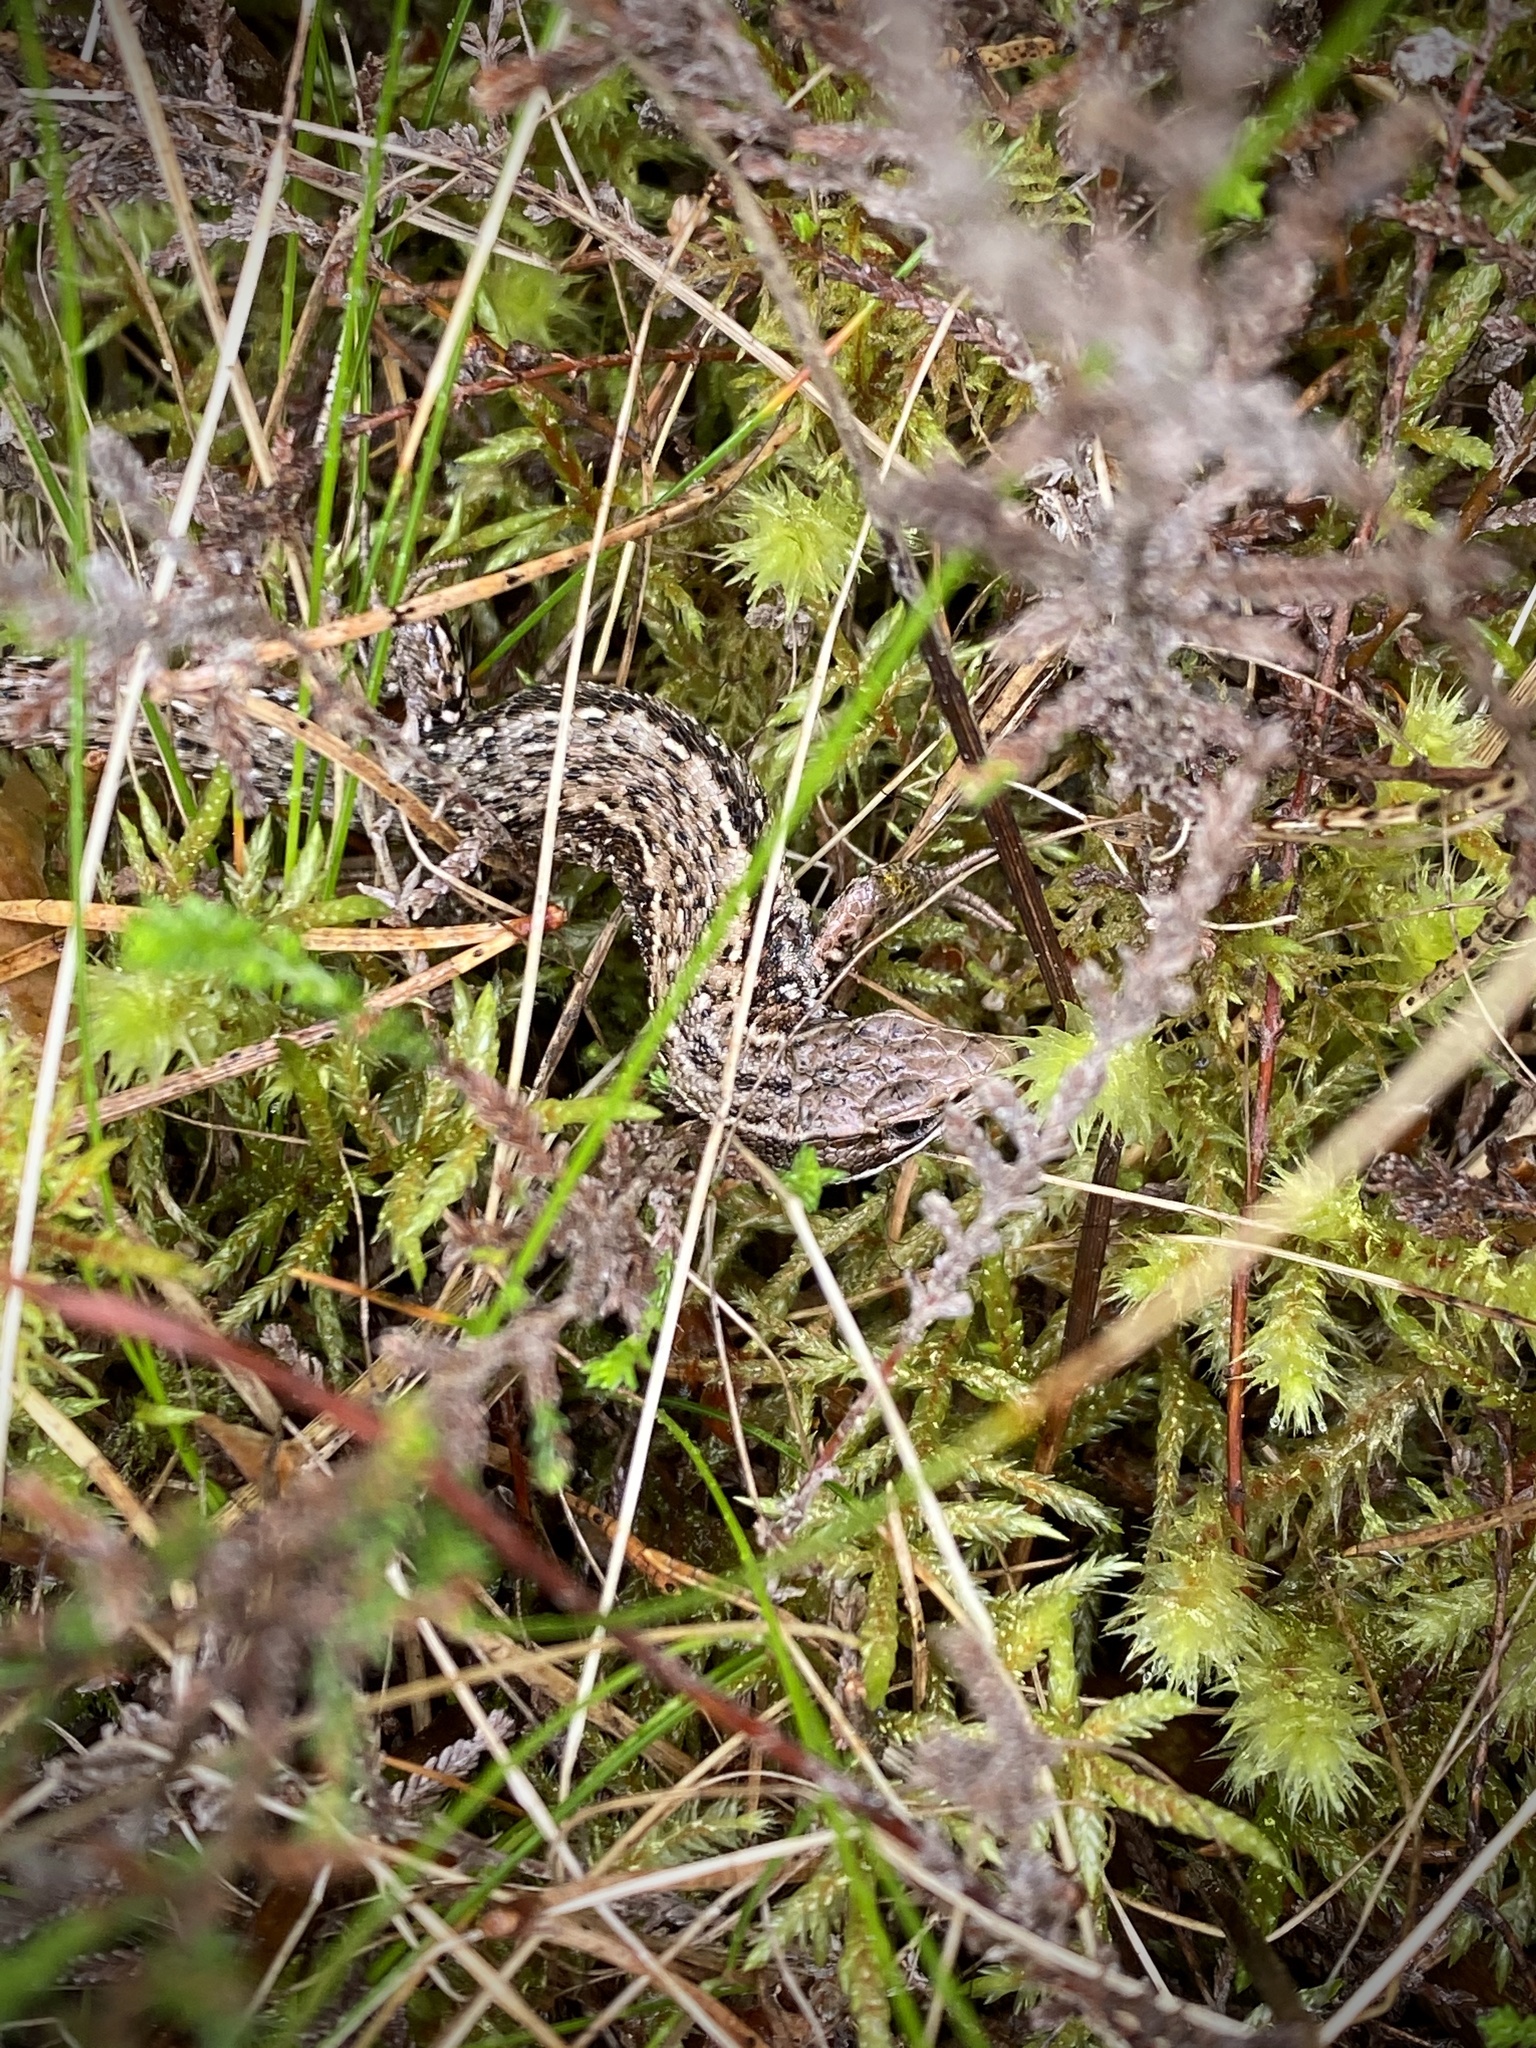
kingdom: Animalia
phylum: Chordata
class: Squamata
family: Lacertidae
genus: Zootoca
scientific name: Zootoca vivipara
